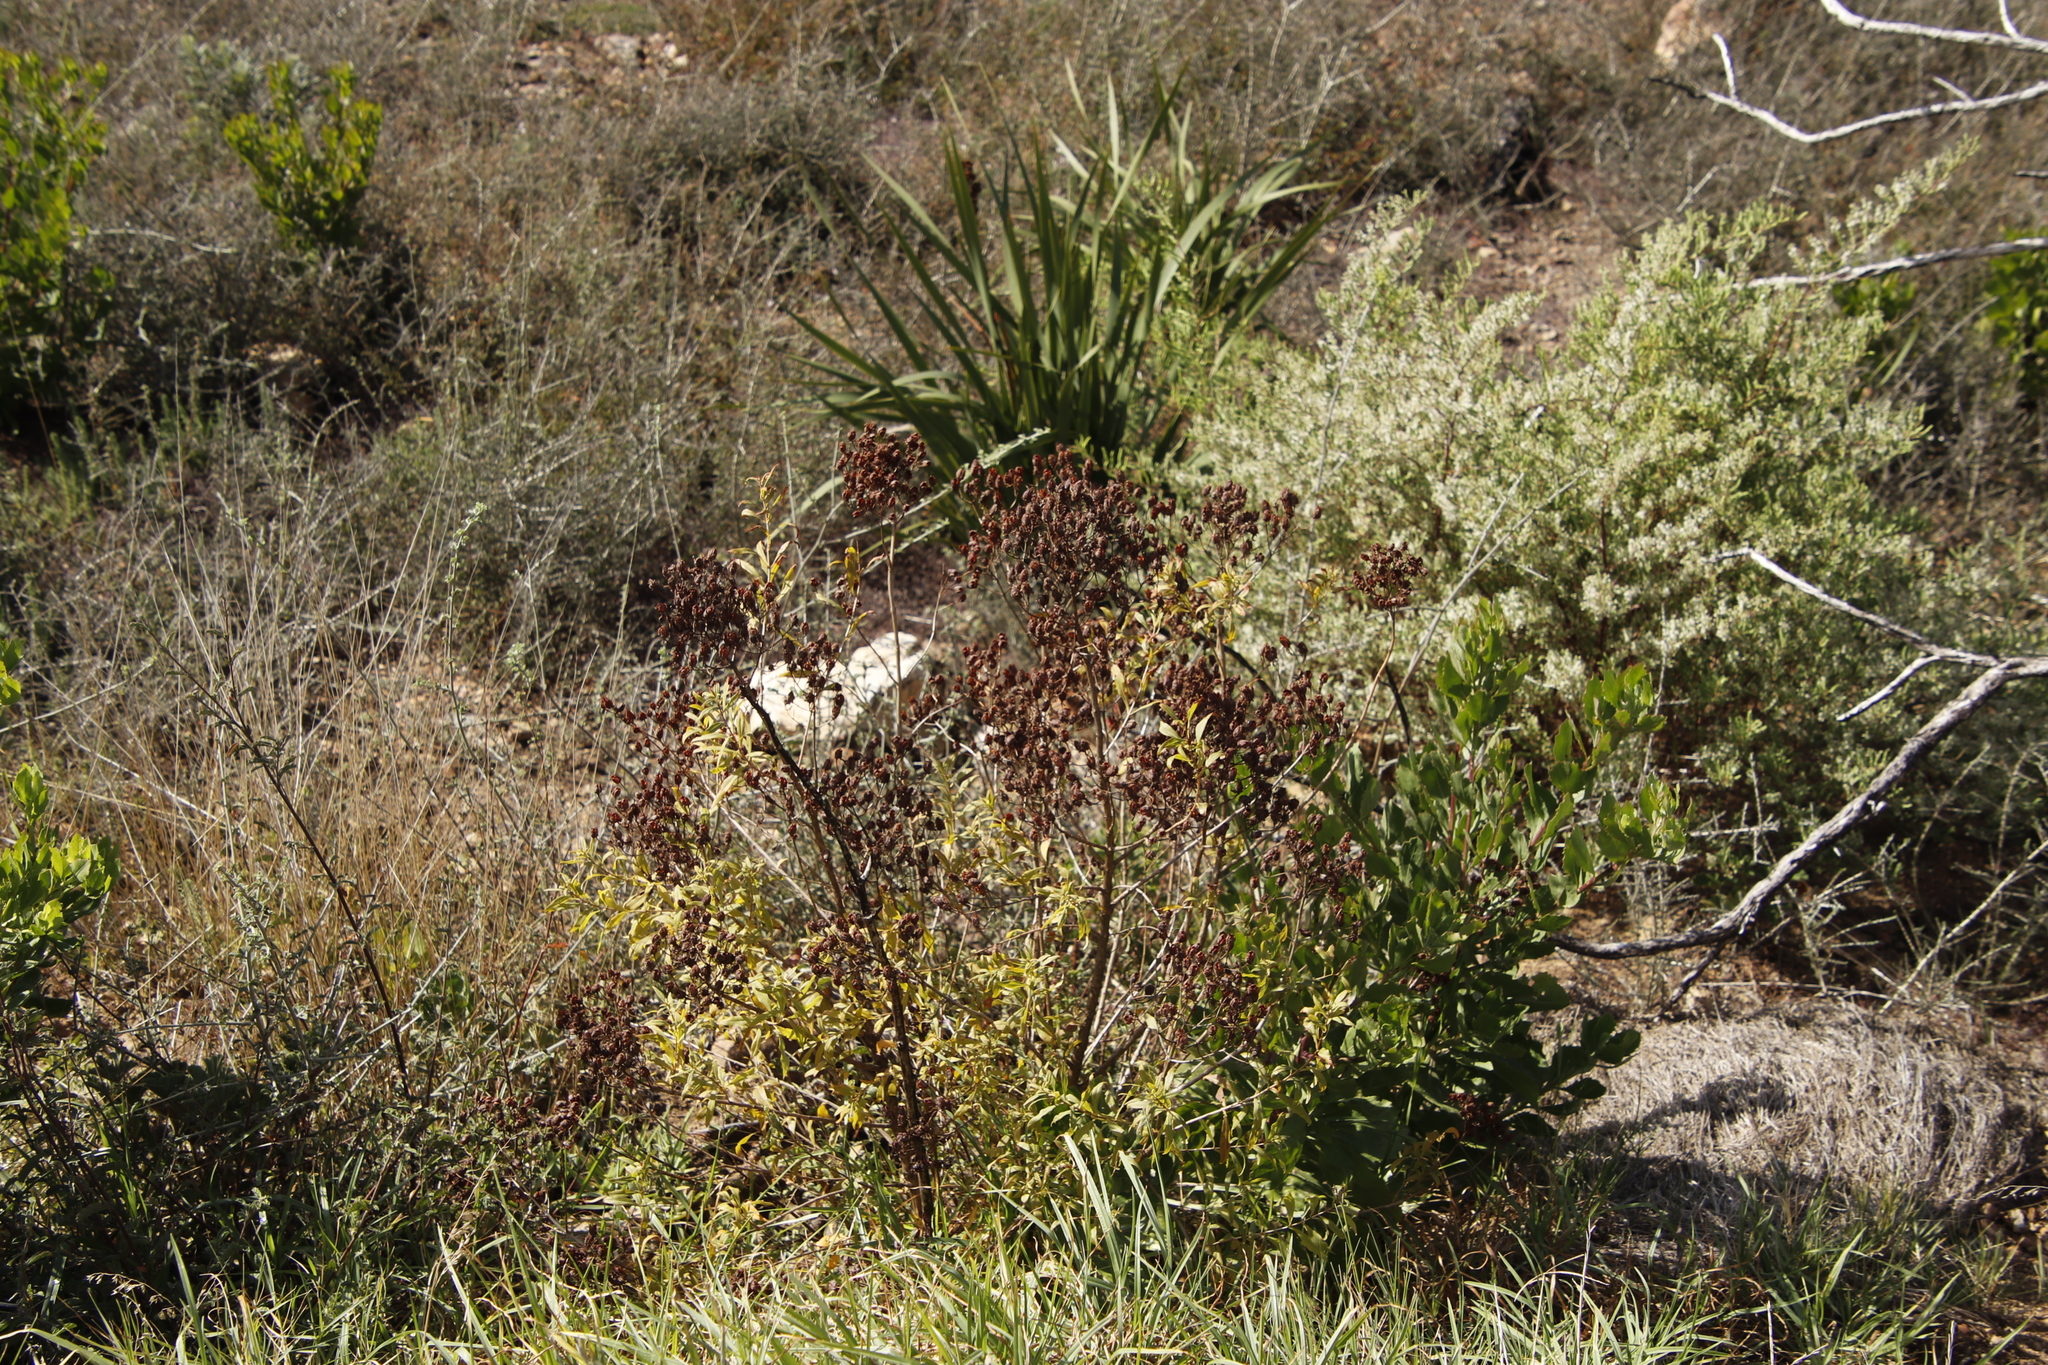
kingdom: Plantae
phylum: Tracheophyta
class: Magnoliopsida
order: Malpighiales
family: Hypericaceae
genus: Hypericum
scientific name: Hypericum canariense
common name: Canary island st. johnswort
